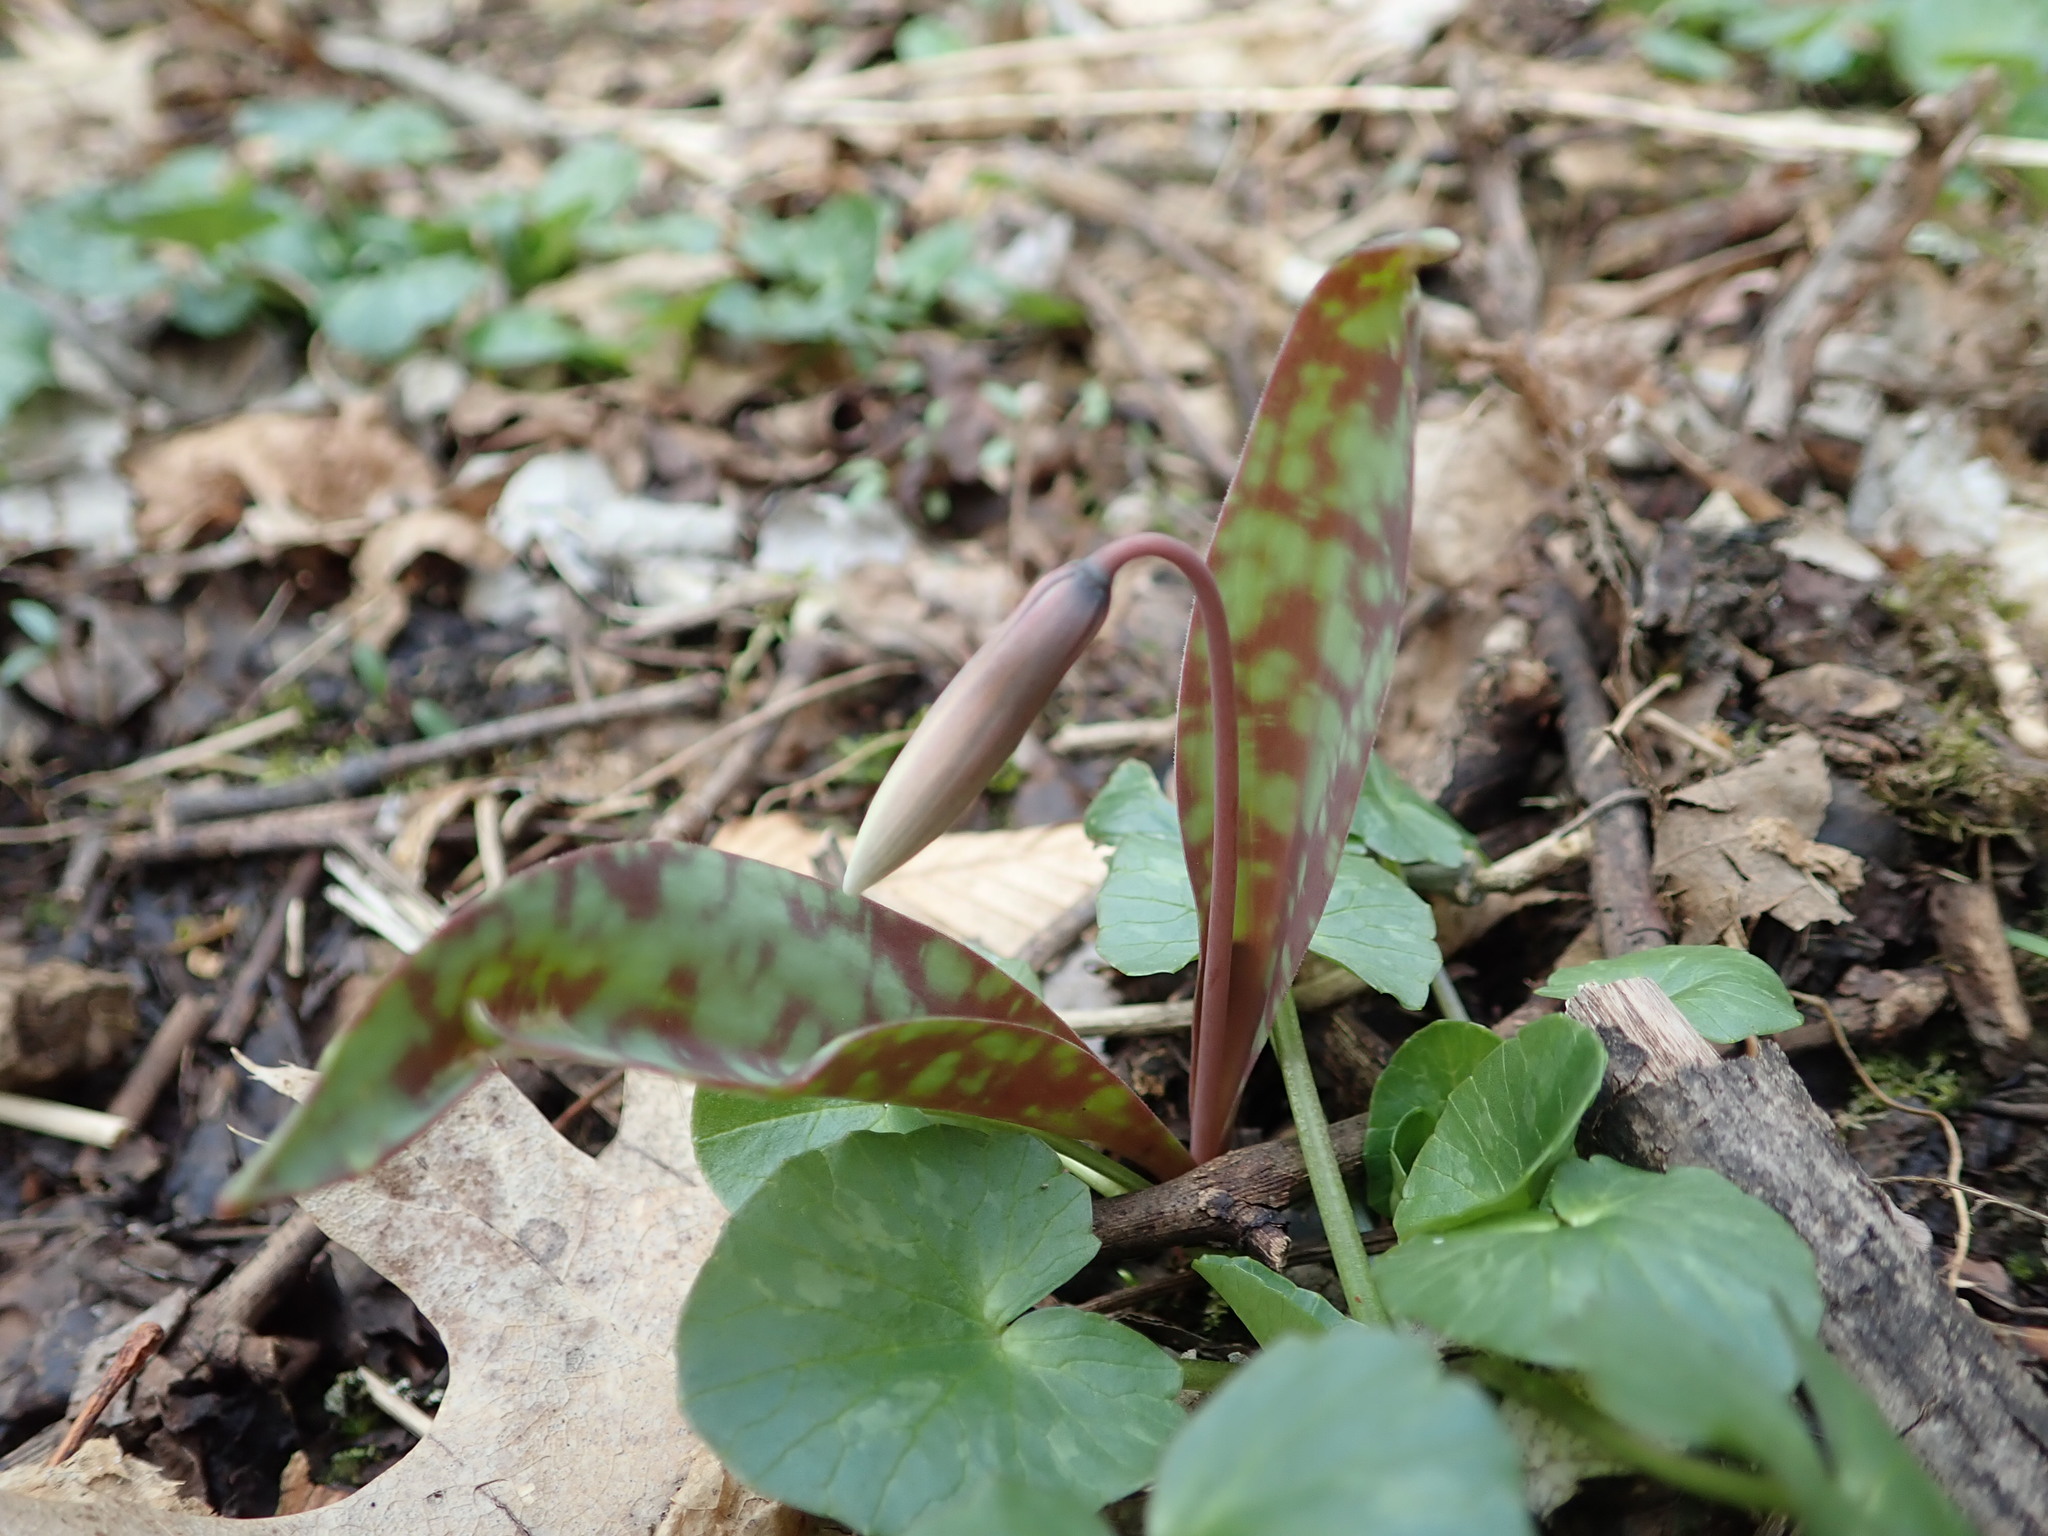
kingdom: Plantae
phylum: Tracheophyta
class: Liliopsida
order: Liliales
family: Liliaceae
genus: Erythronium
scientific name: Erythronium albidum
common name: White trout-lily
